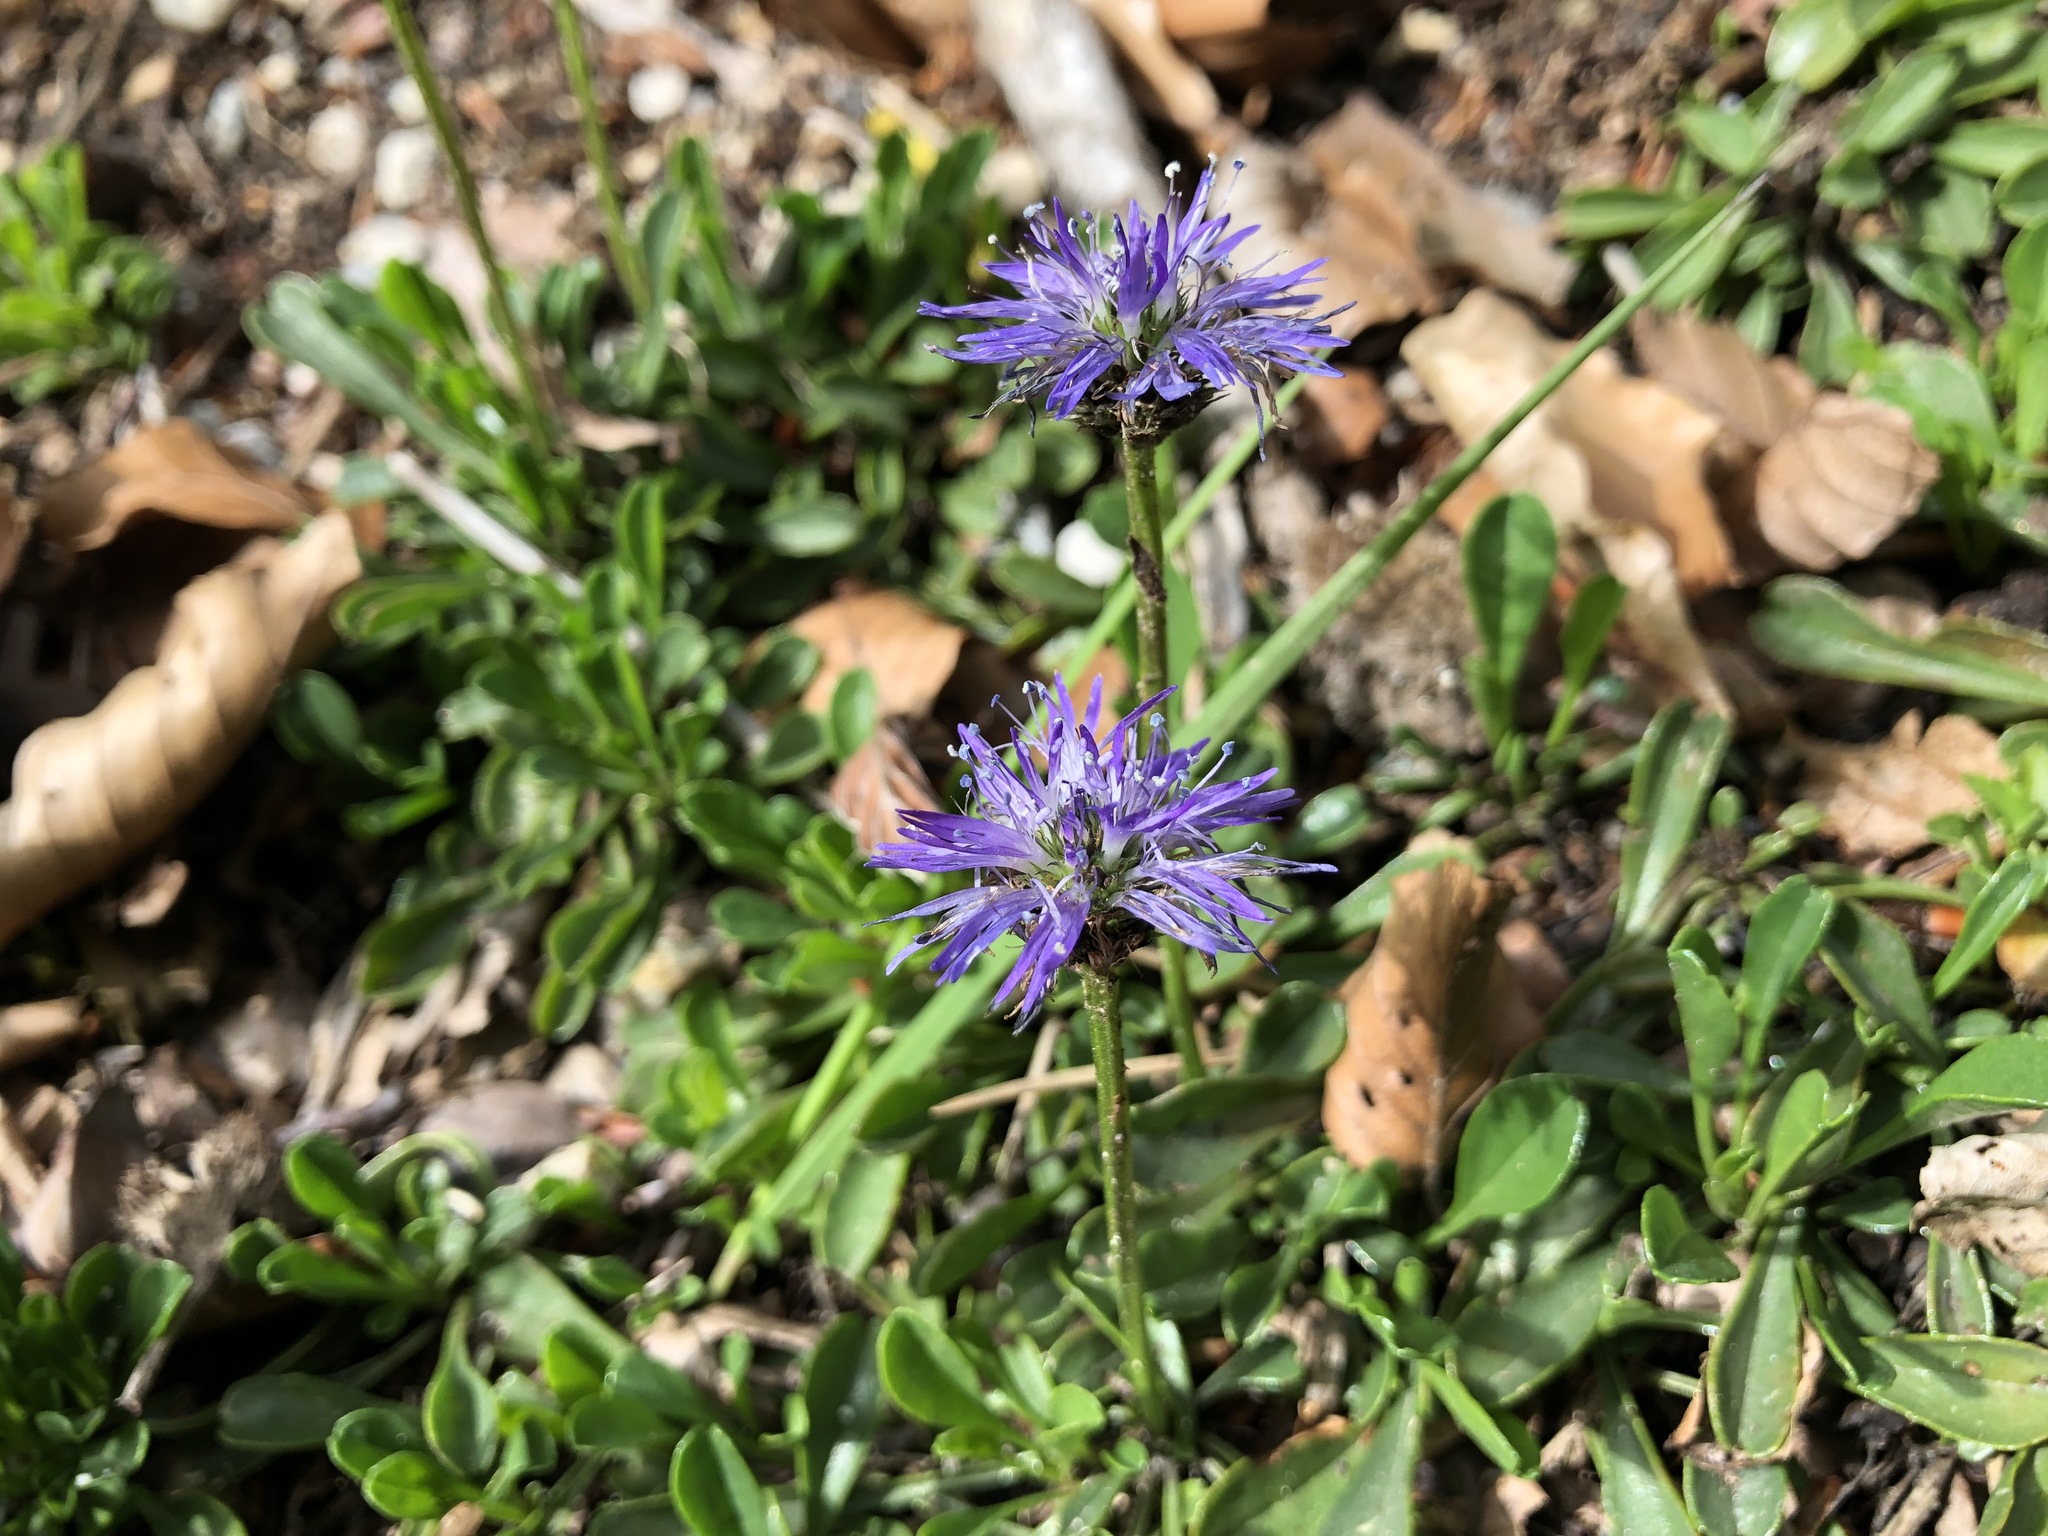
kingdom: Plantae
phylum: Tracheophyta
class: Magnoliopsida
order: Lamiales
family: Plantaginaceae
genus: Globularia
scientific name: Globularia cordifolia
